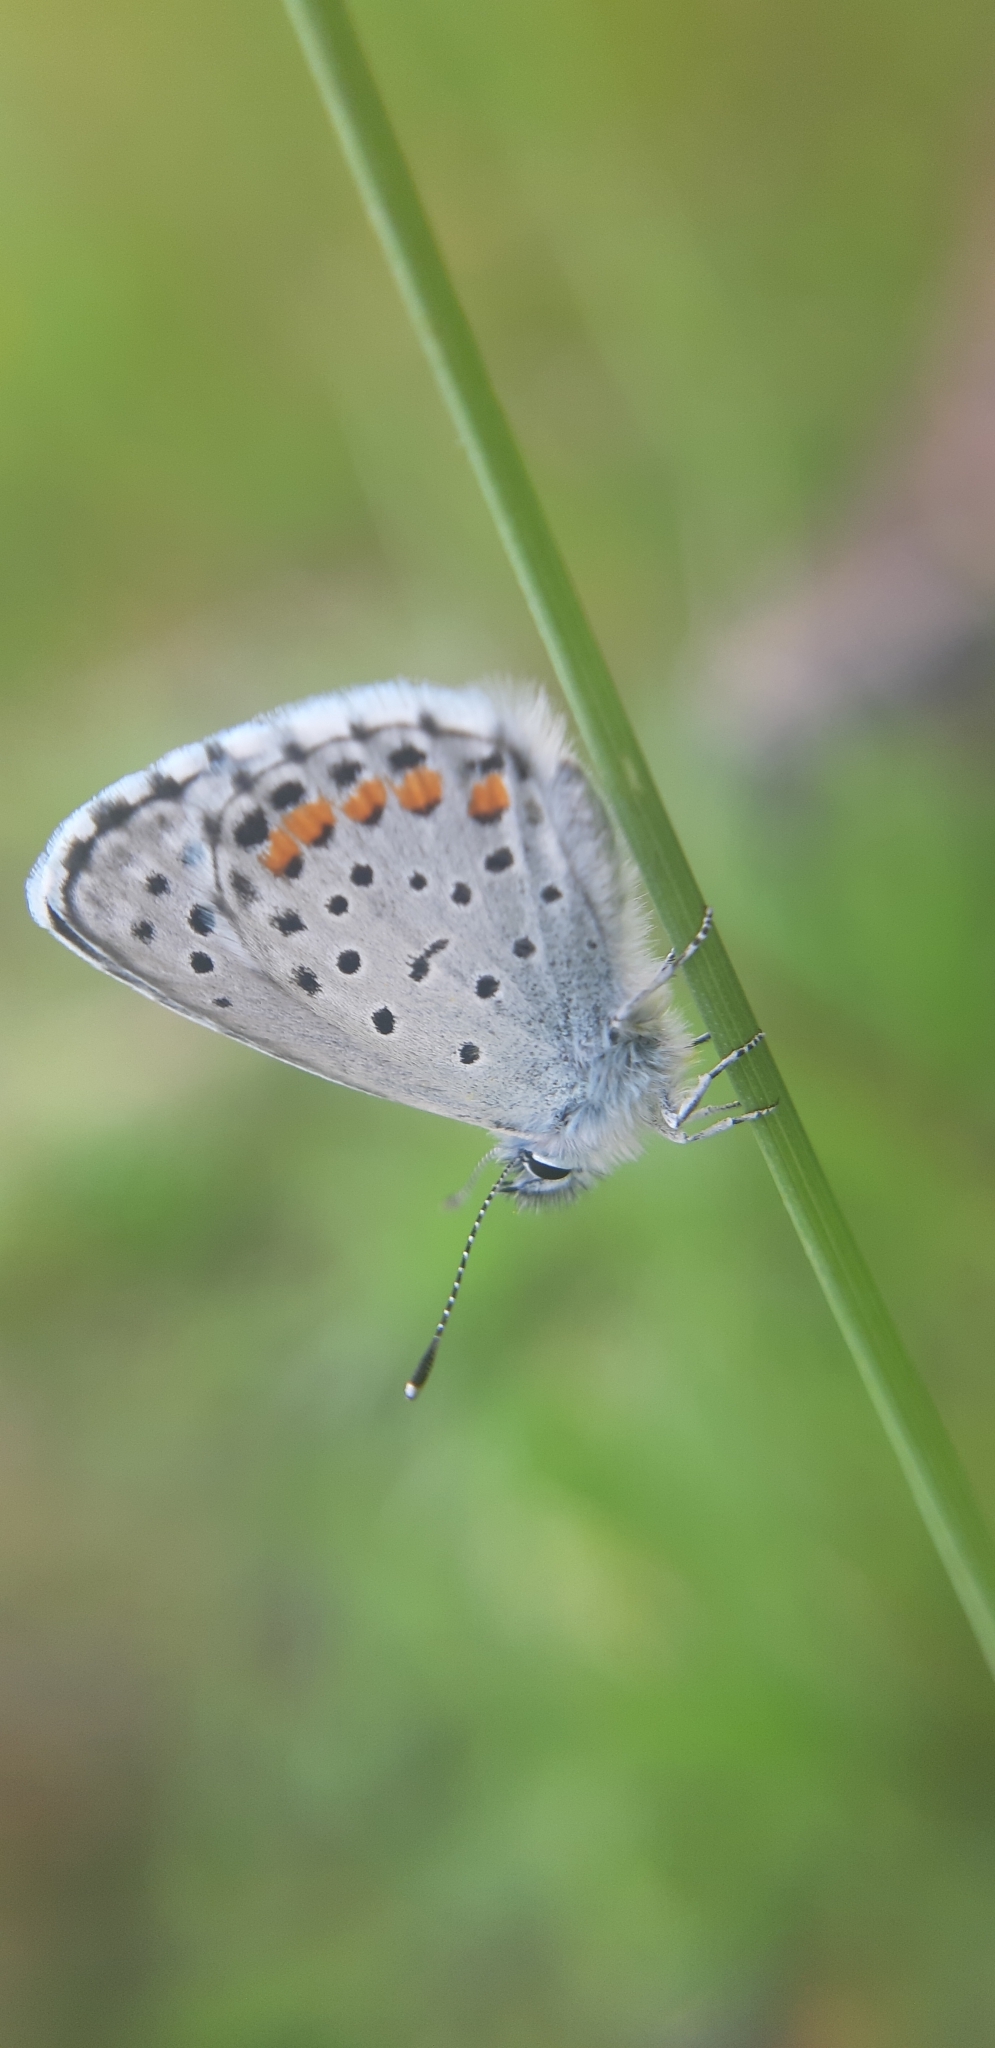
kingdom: Animalia
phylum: Arthropoda
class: Insecta
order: Lepidoptera
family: Lycaenidae
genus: Pseudophilotes
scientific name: Pseudophilotes baton
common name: Baton blue
